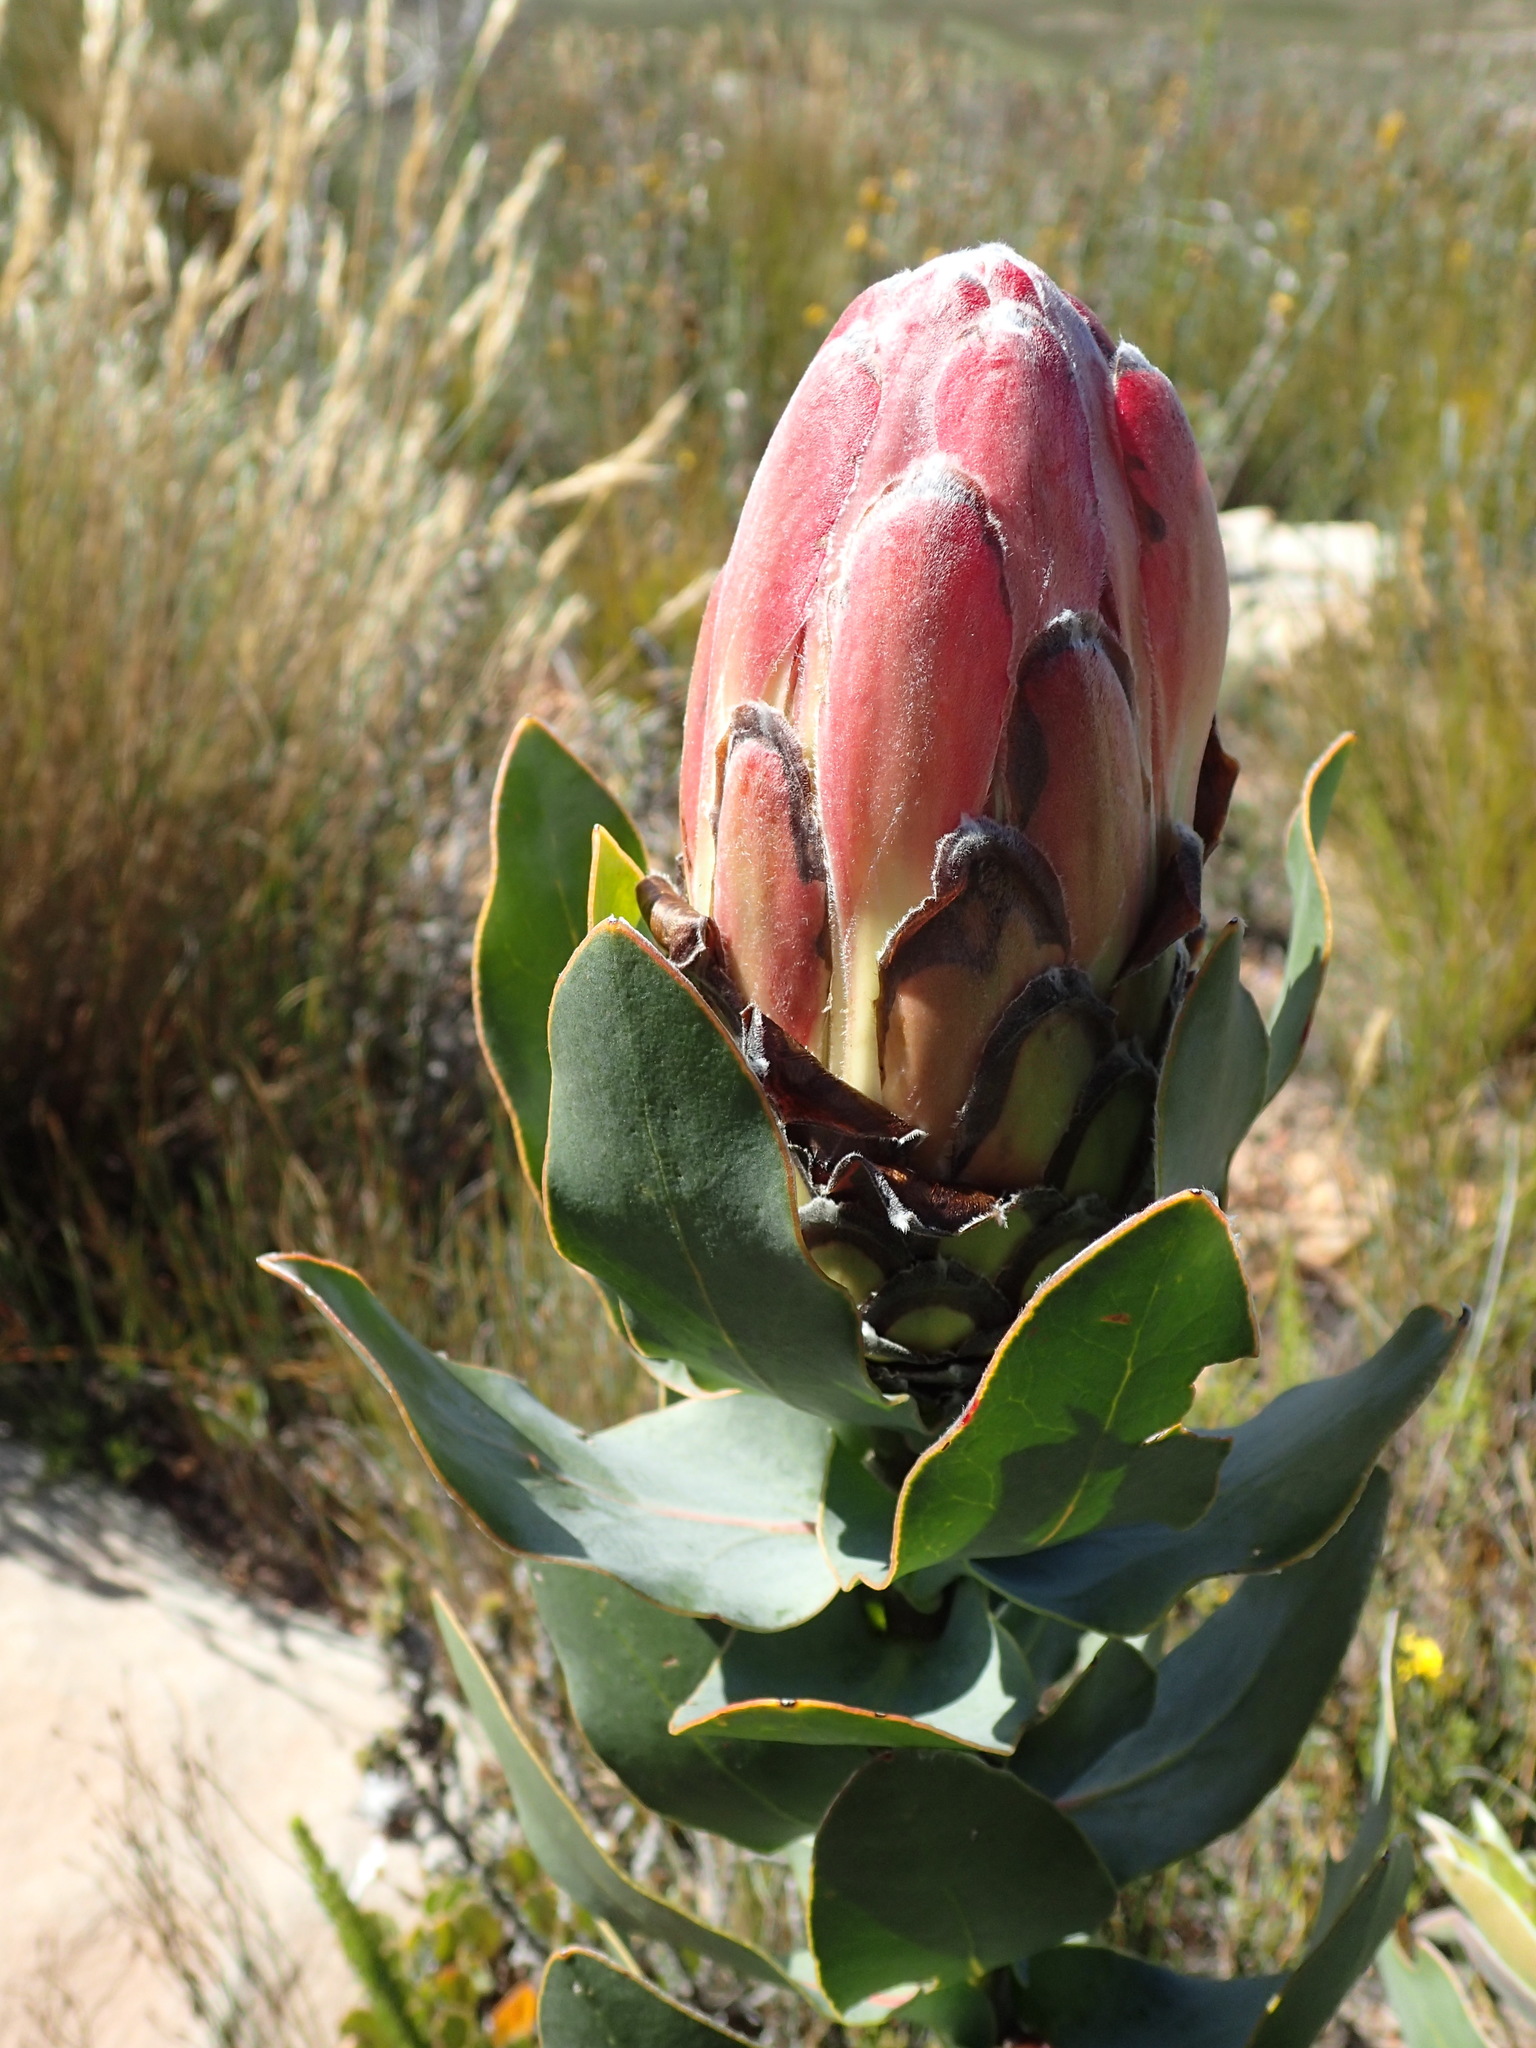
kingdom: Plantae
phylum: Tracheophyta
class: Magnoliopsida
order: Proteales
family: Proteaceae
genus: Protea
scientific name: Protea eximia
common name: Broad-leaved sugarbush
